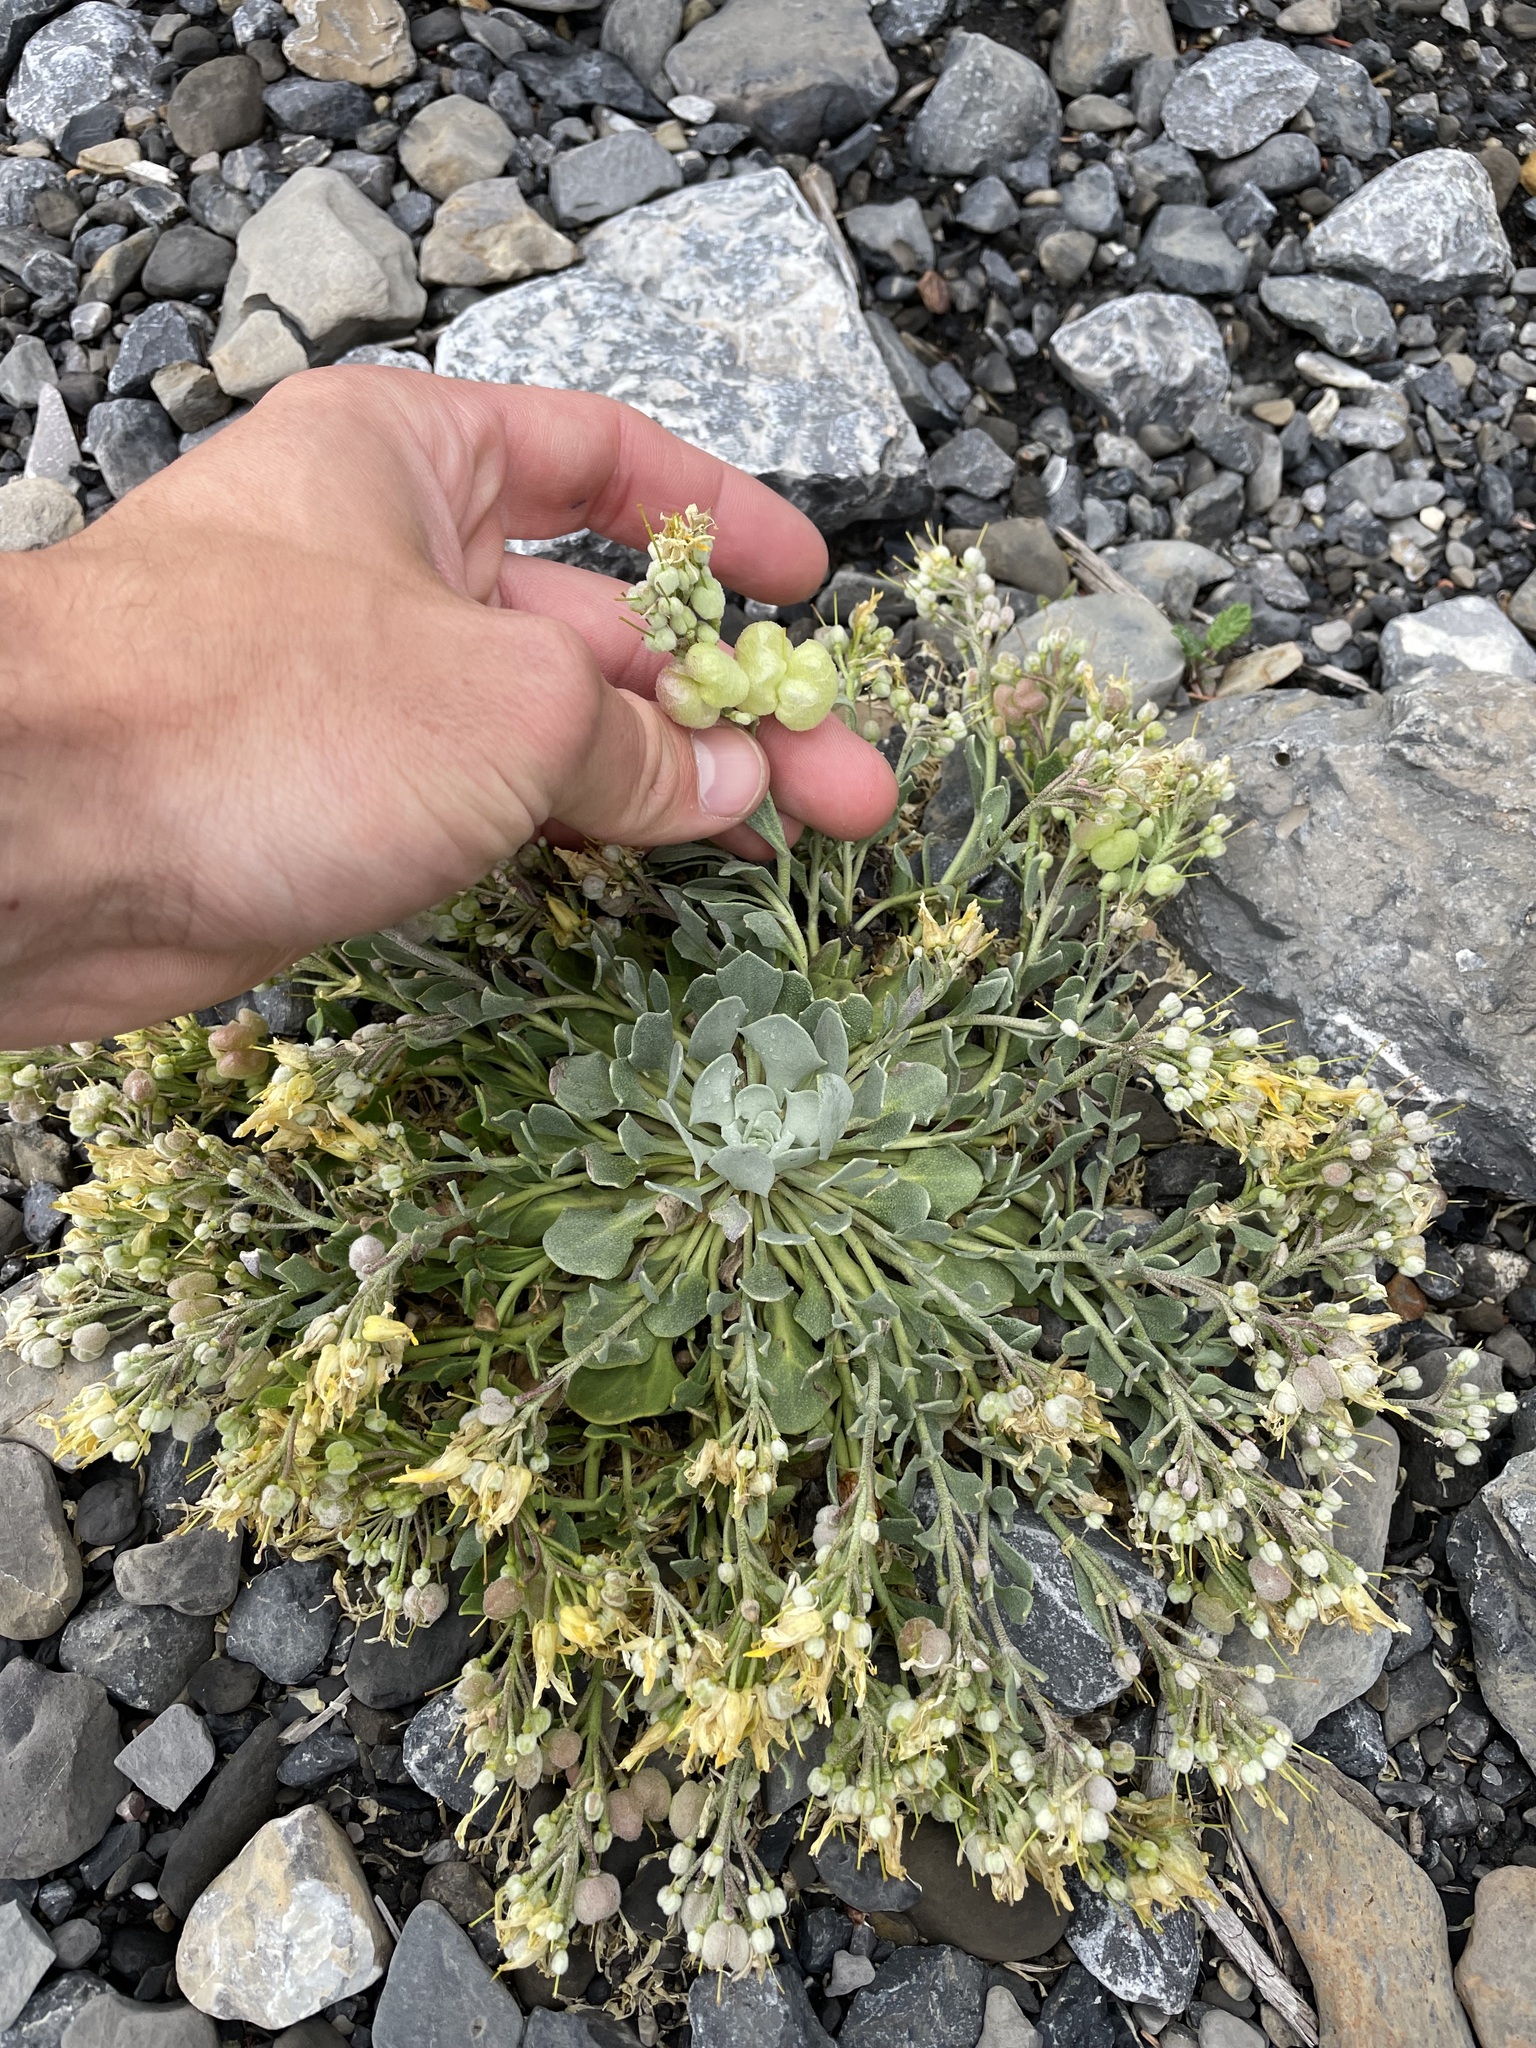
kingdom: Plantae
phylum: Tracheophyta
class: Magnoliopsida
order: Brassicales
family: Brassicaceae
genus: Physaria
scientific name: Physaria didymocarpa
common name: Common twinpod
